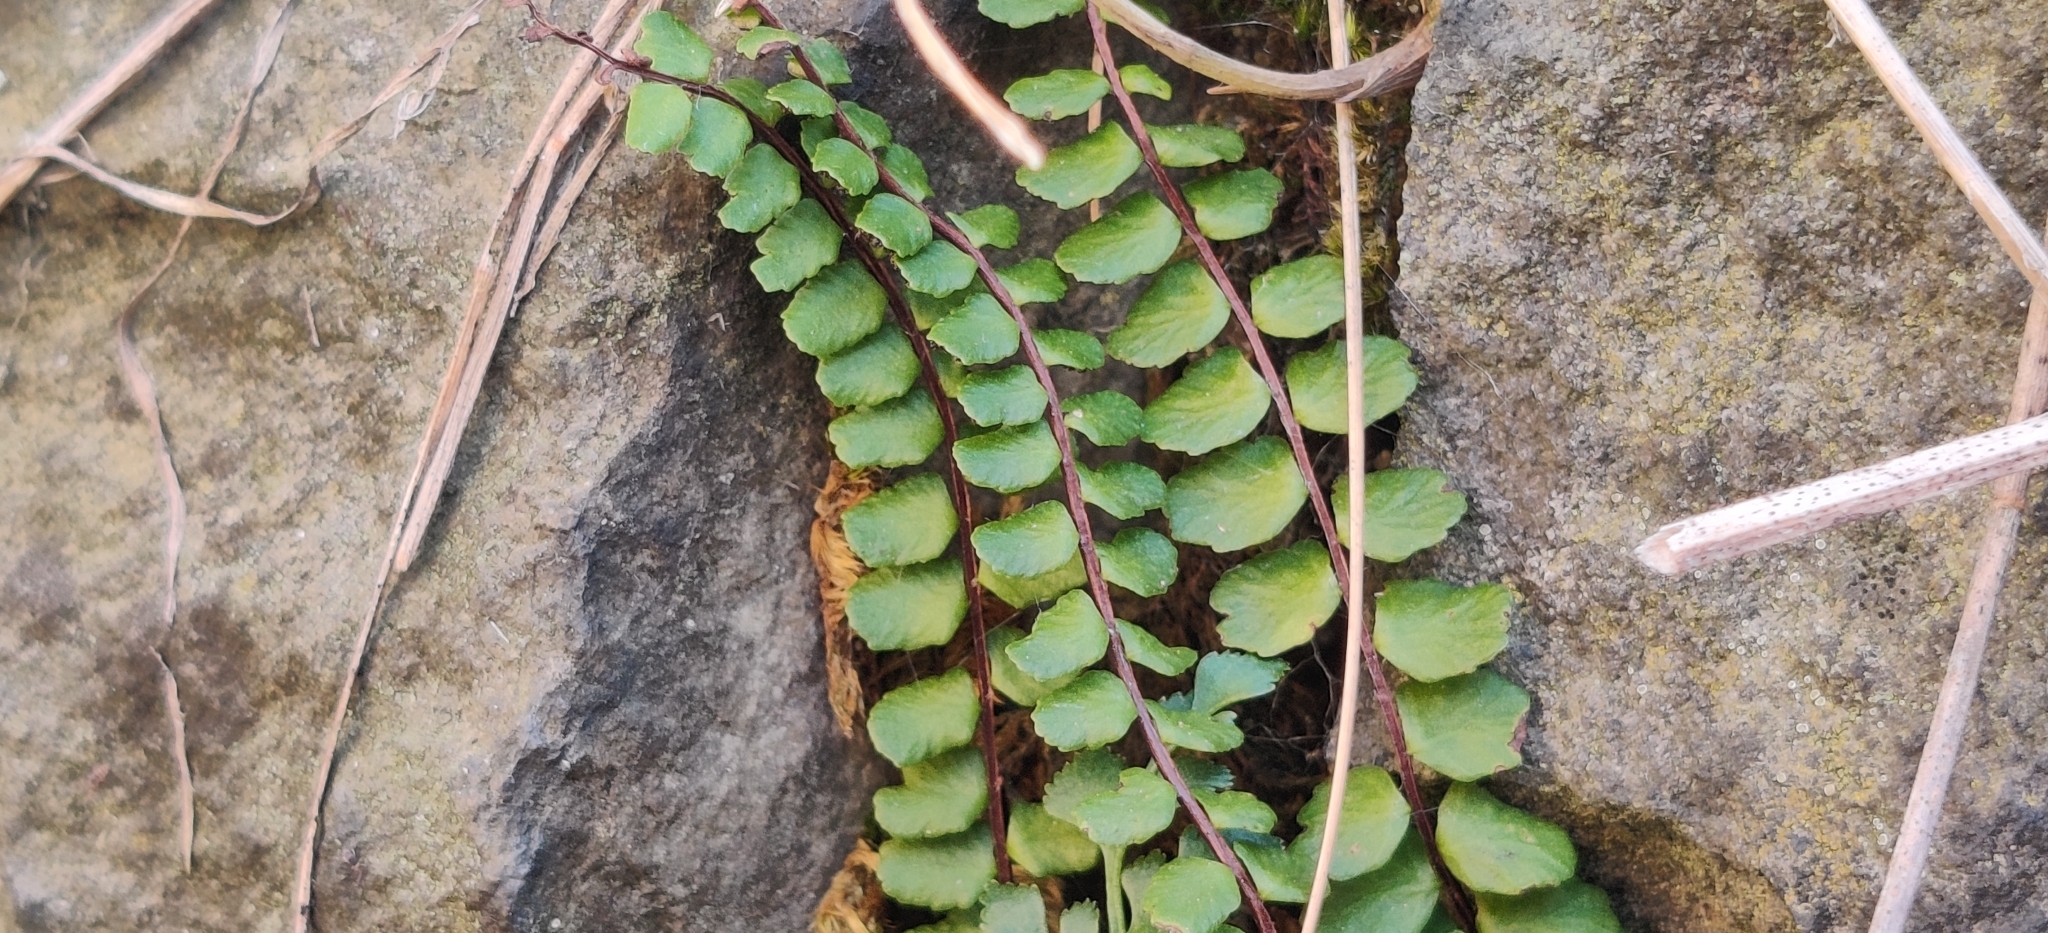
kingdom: Plantae
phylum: Tracheophyta
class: Polypodiopsida
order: Polypodiales
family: Aspleniaceae
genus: Asplenium
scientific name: Asplenium trichomanes
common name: Maidenhair spleenwort
